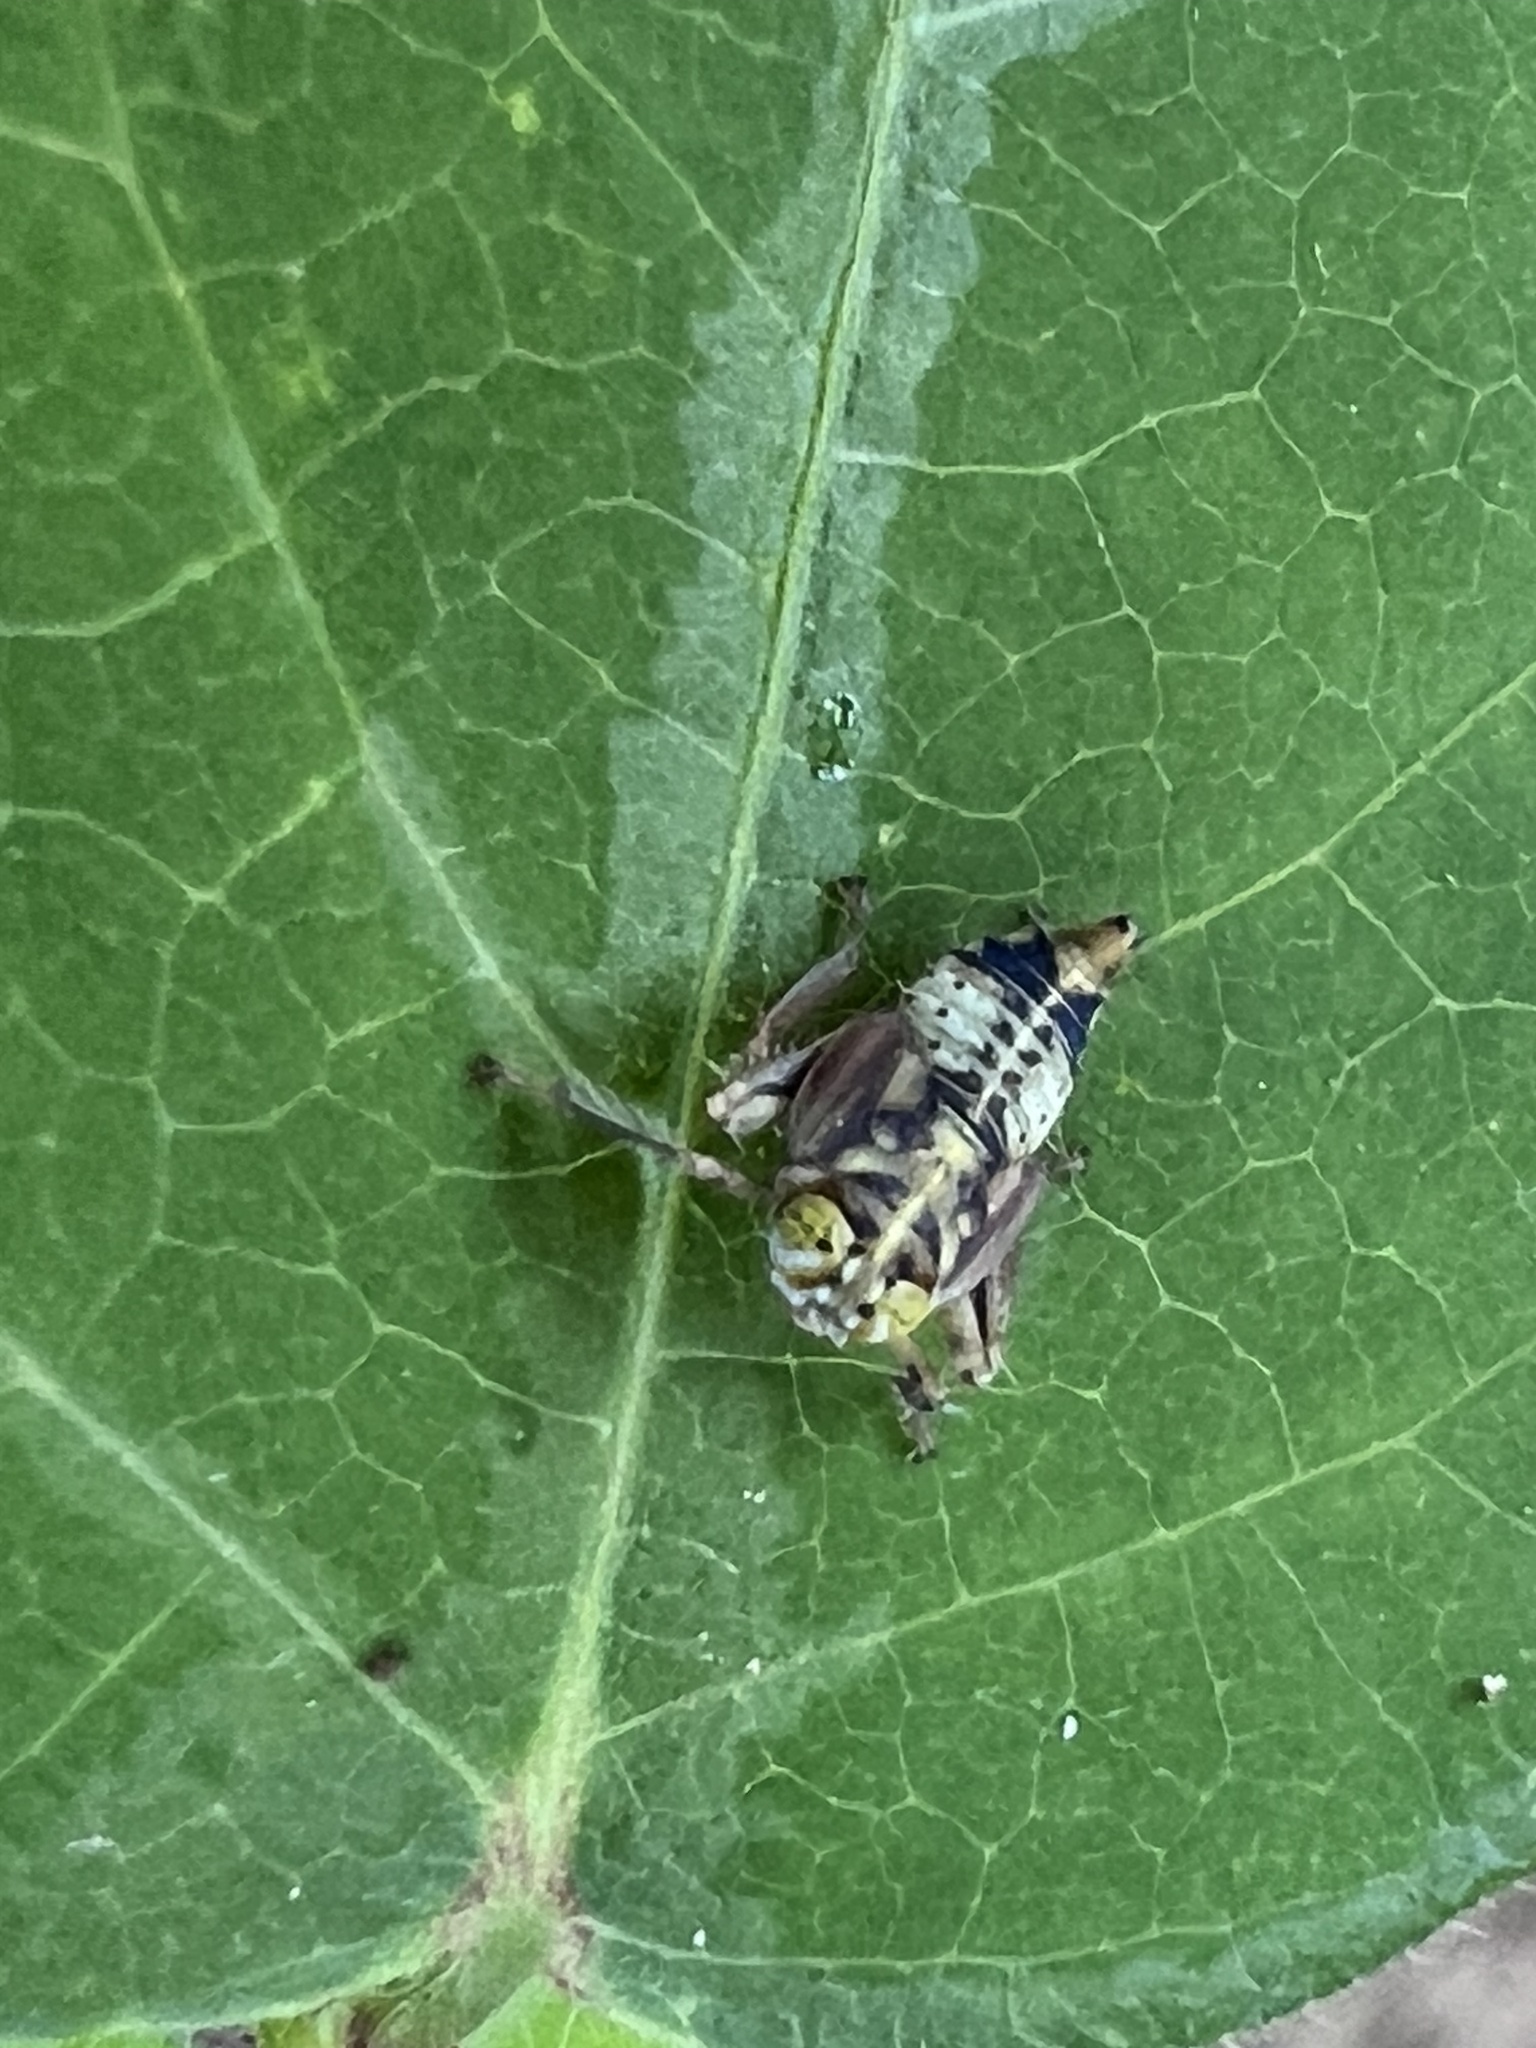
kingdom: Animalia
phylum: Arthropoda
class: Insecta
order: Hemiptera
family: Cicadellidae
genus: Jikradia
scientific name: Jikradia olitoria
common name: Coppery leafhopper
